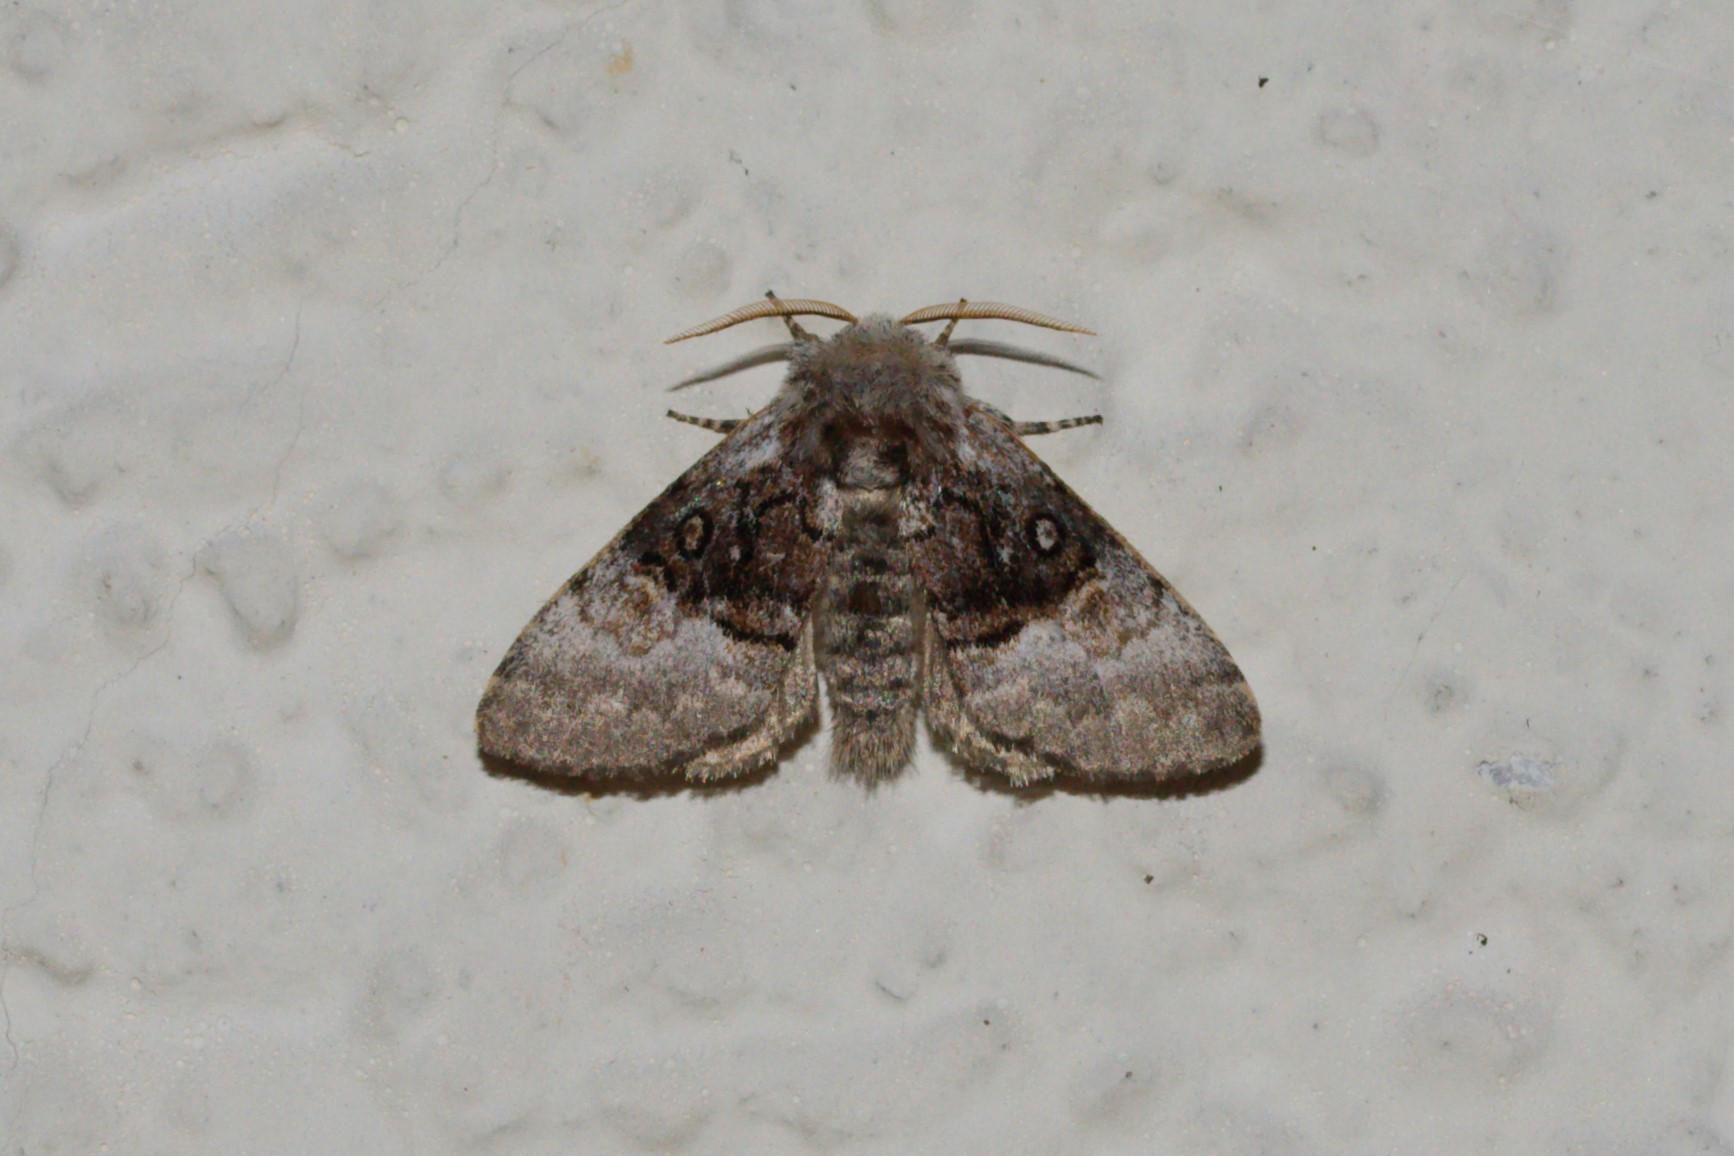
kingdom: Animalia
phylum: Arthropoda
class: Insecta
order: Lepidoptera
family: Noctuidae
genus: Colocasia
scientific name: Colocasia coryli
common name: Nut-tree tussock
